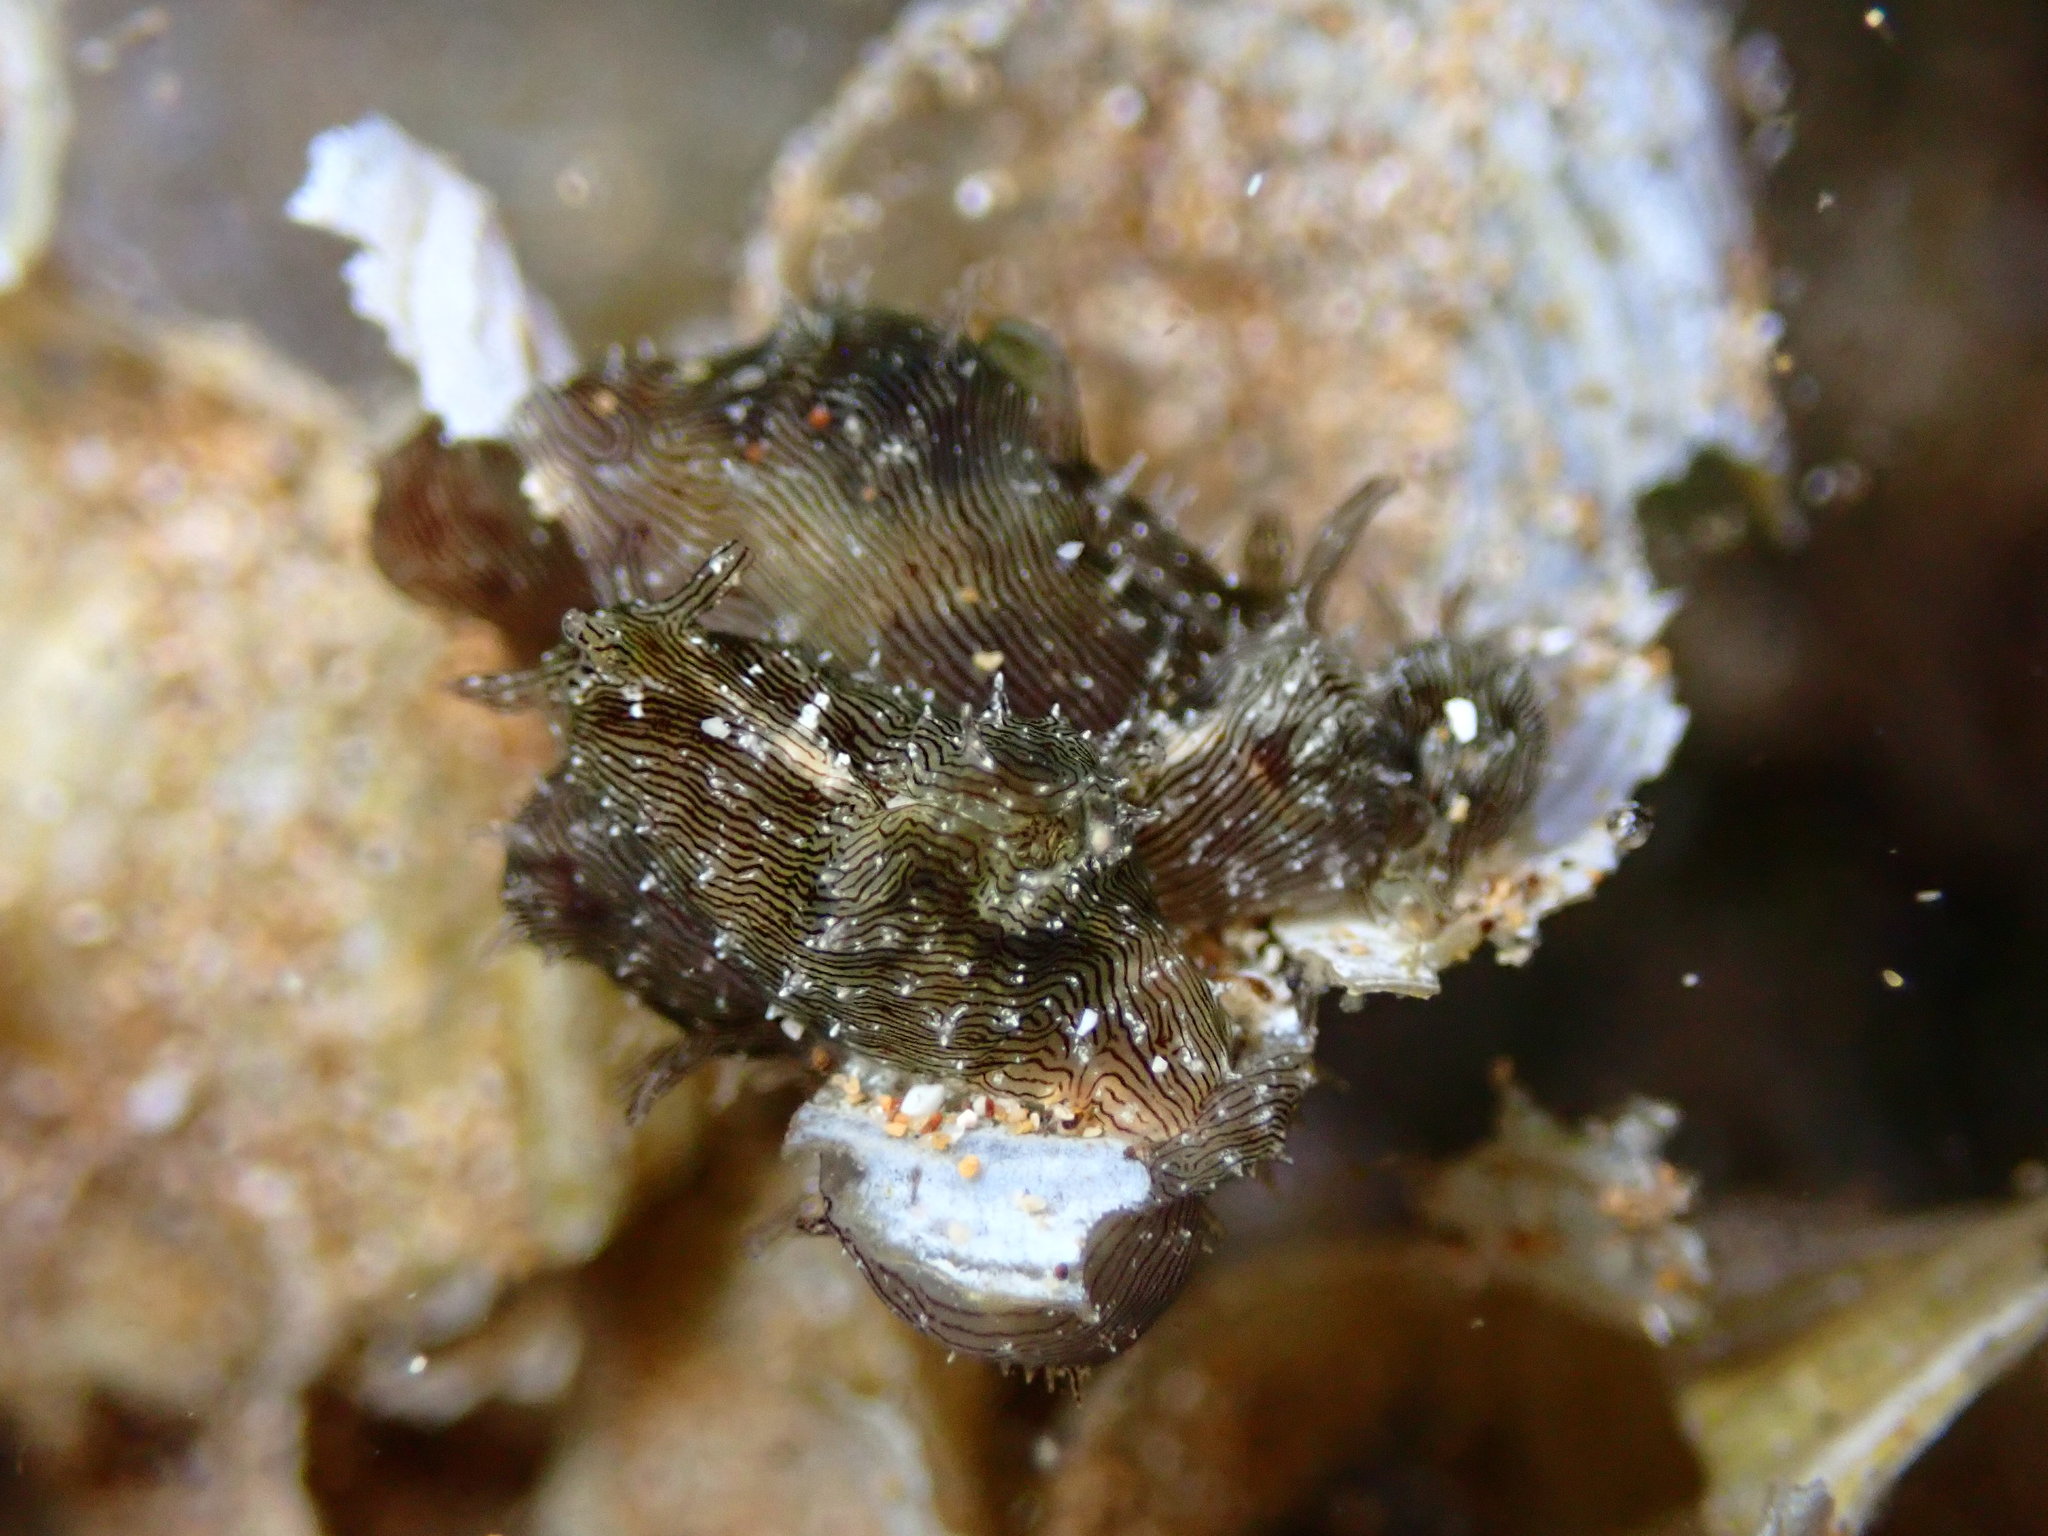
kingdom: Animalia
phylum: Mollusca
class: Gastropoda
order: Aplysiida
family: Aplysiidae
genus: Stylocheilus
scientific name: Stylocheilus striatus
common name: Striated seahare
